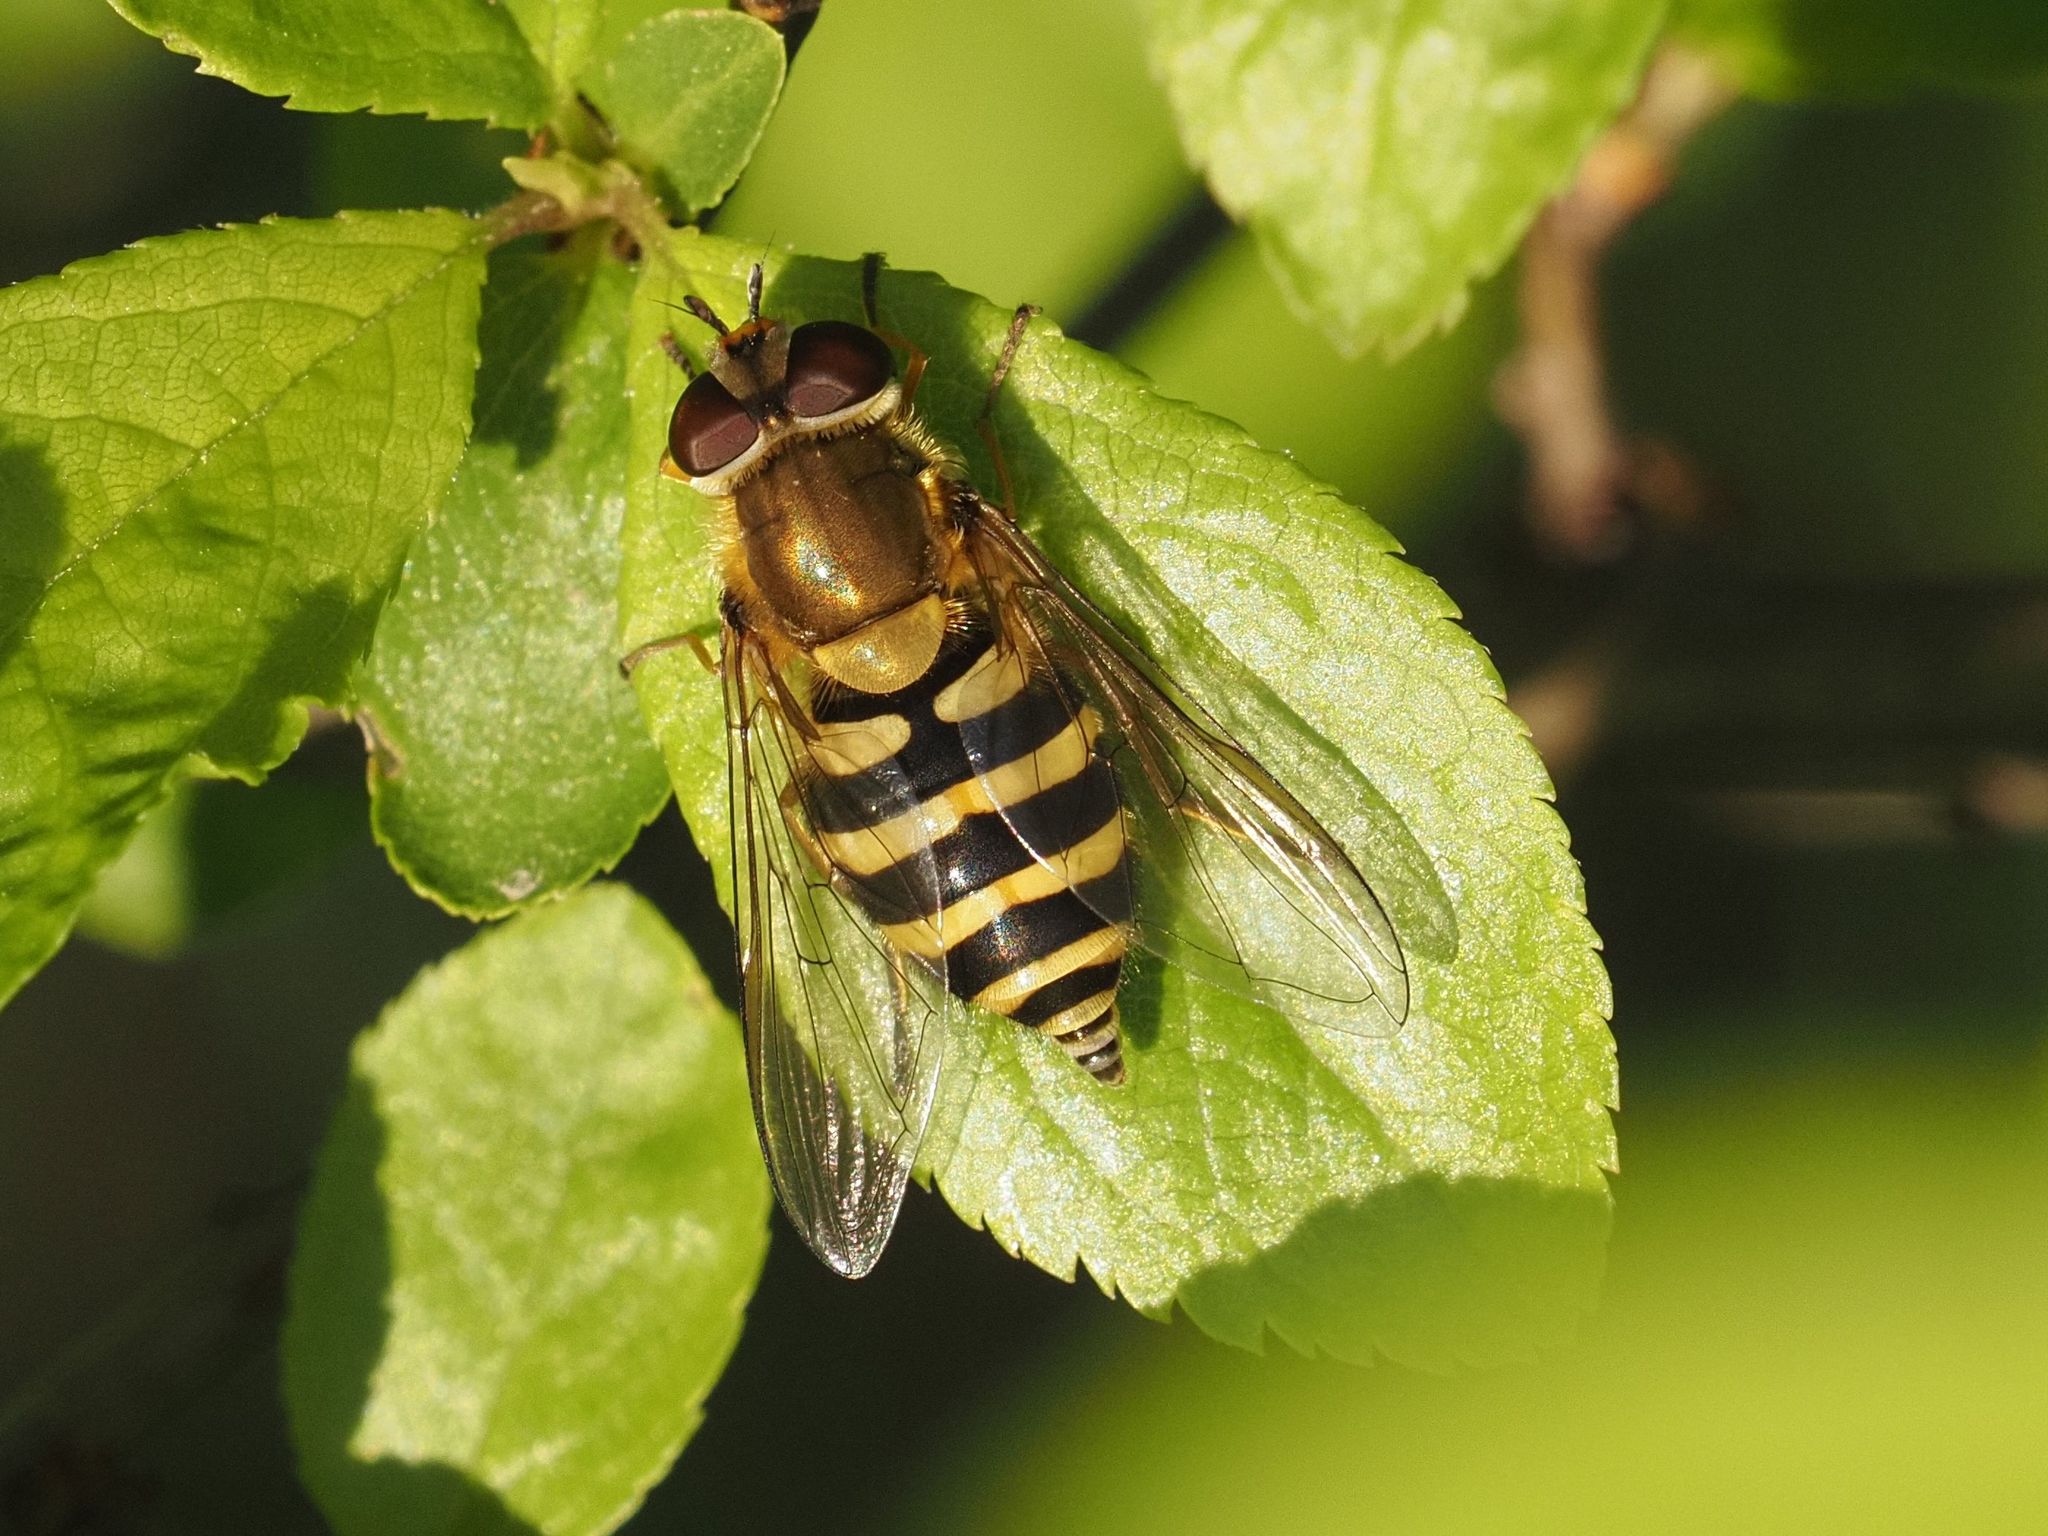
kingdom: Animalia
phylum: Arthropoda
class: Insecta
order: Diptera
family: Syrphidae
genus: Syrphus
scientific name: Syrphus
